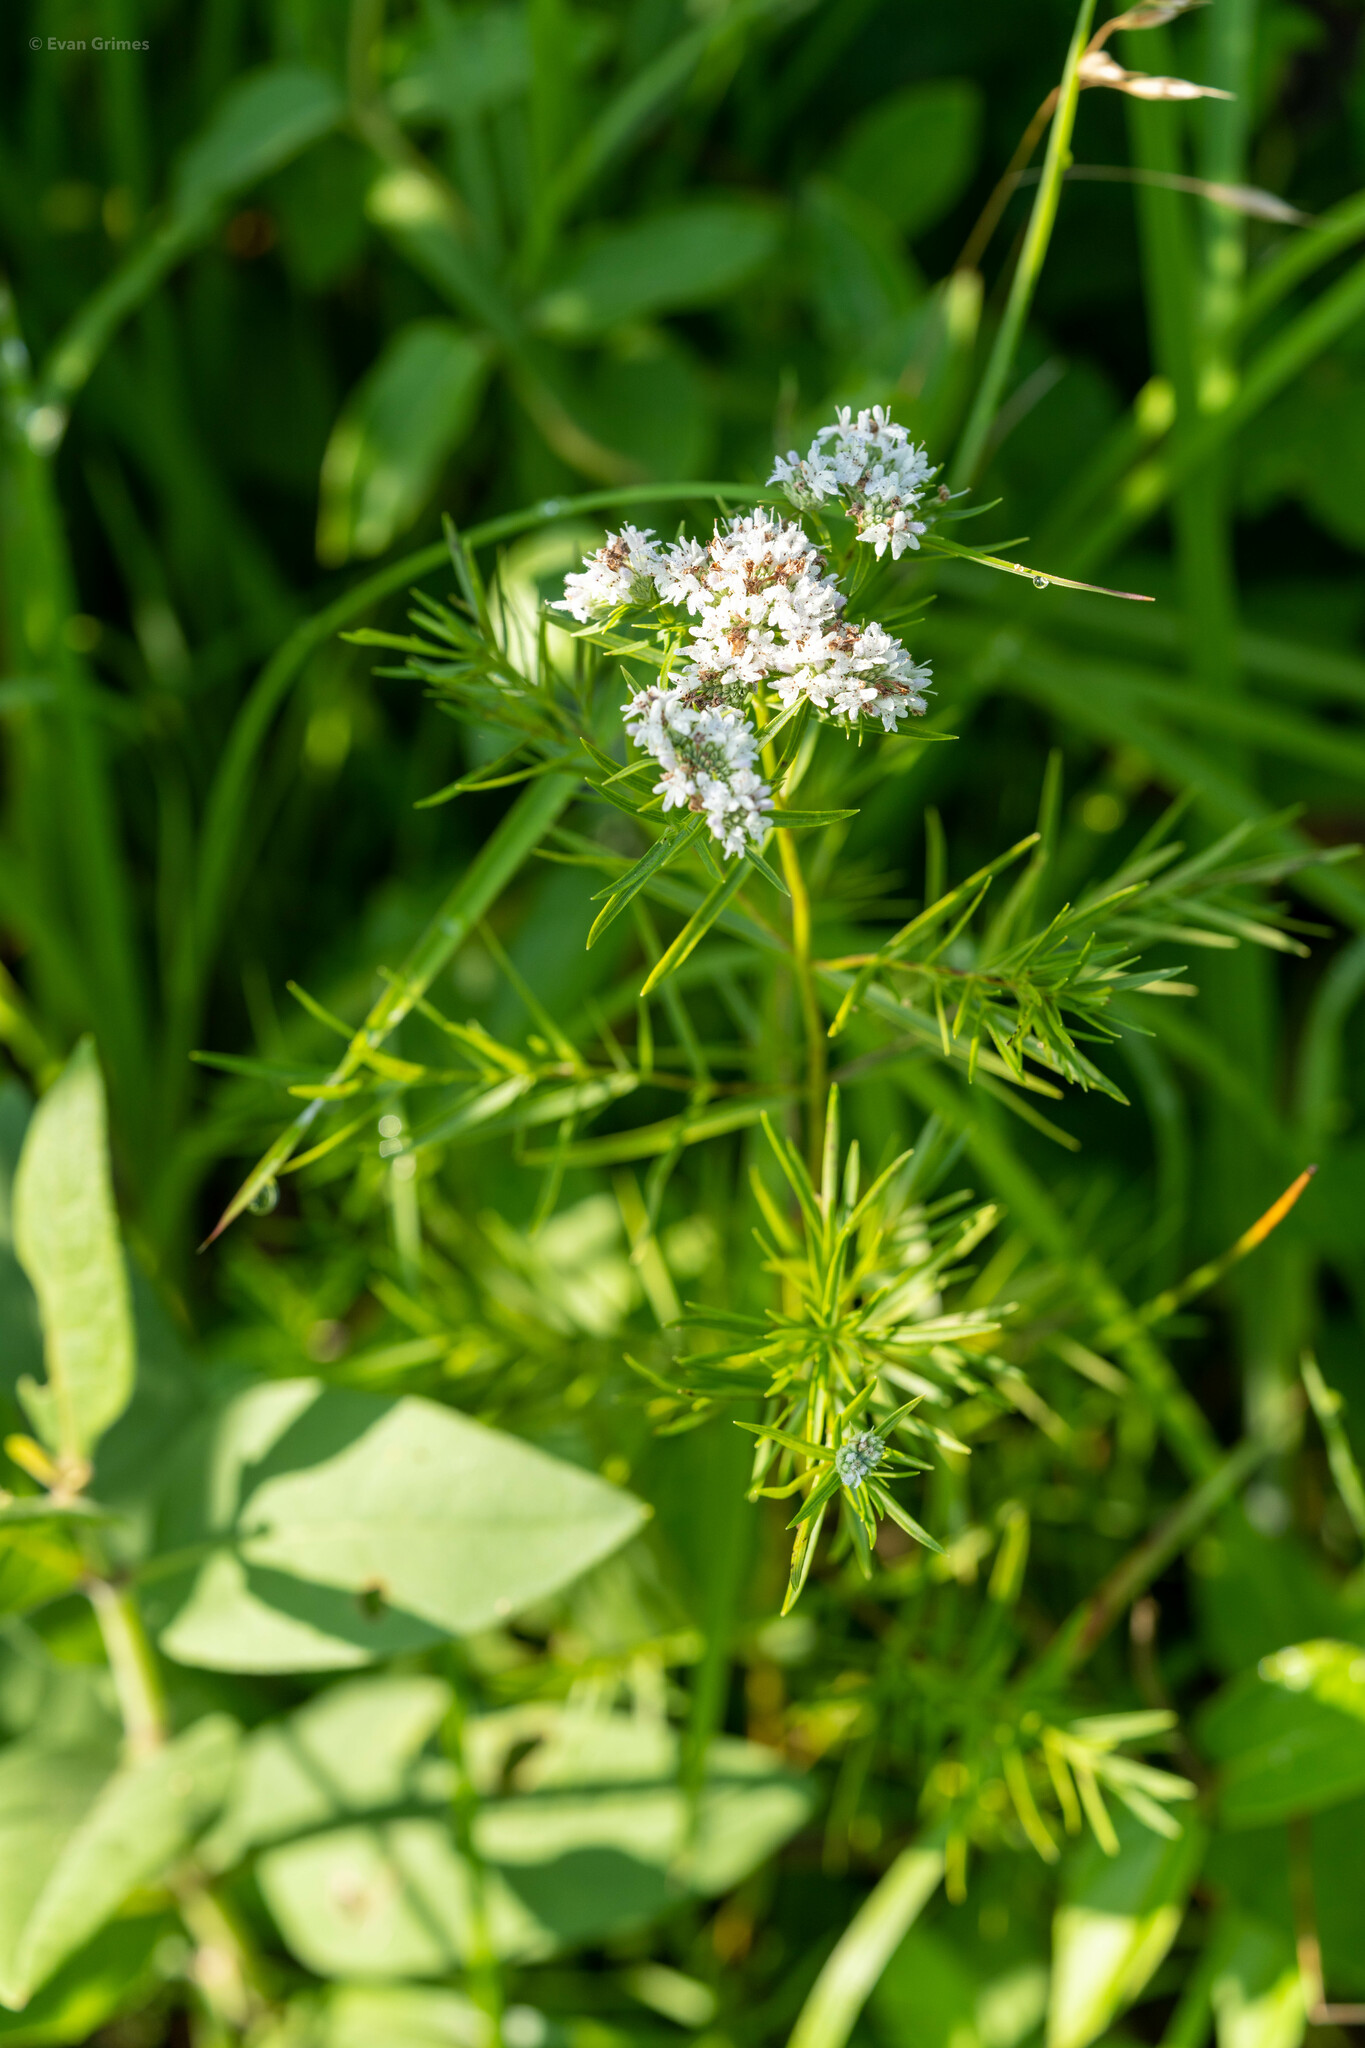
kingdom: Plantae
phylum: Tracheophyta
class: Magnoliopsida
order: Lamiales
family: Lamiaceae
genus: Pycnanthemum
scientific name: Pycnanthemum tenuifolium
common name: Narrow-leaf mountain-mint
